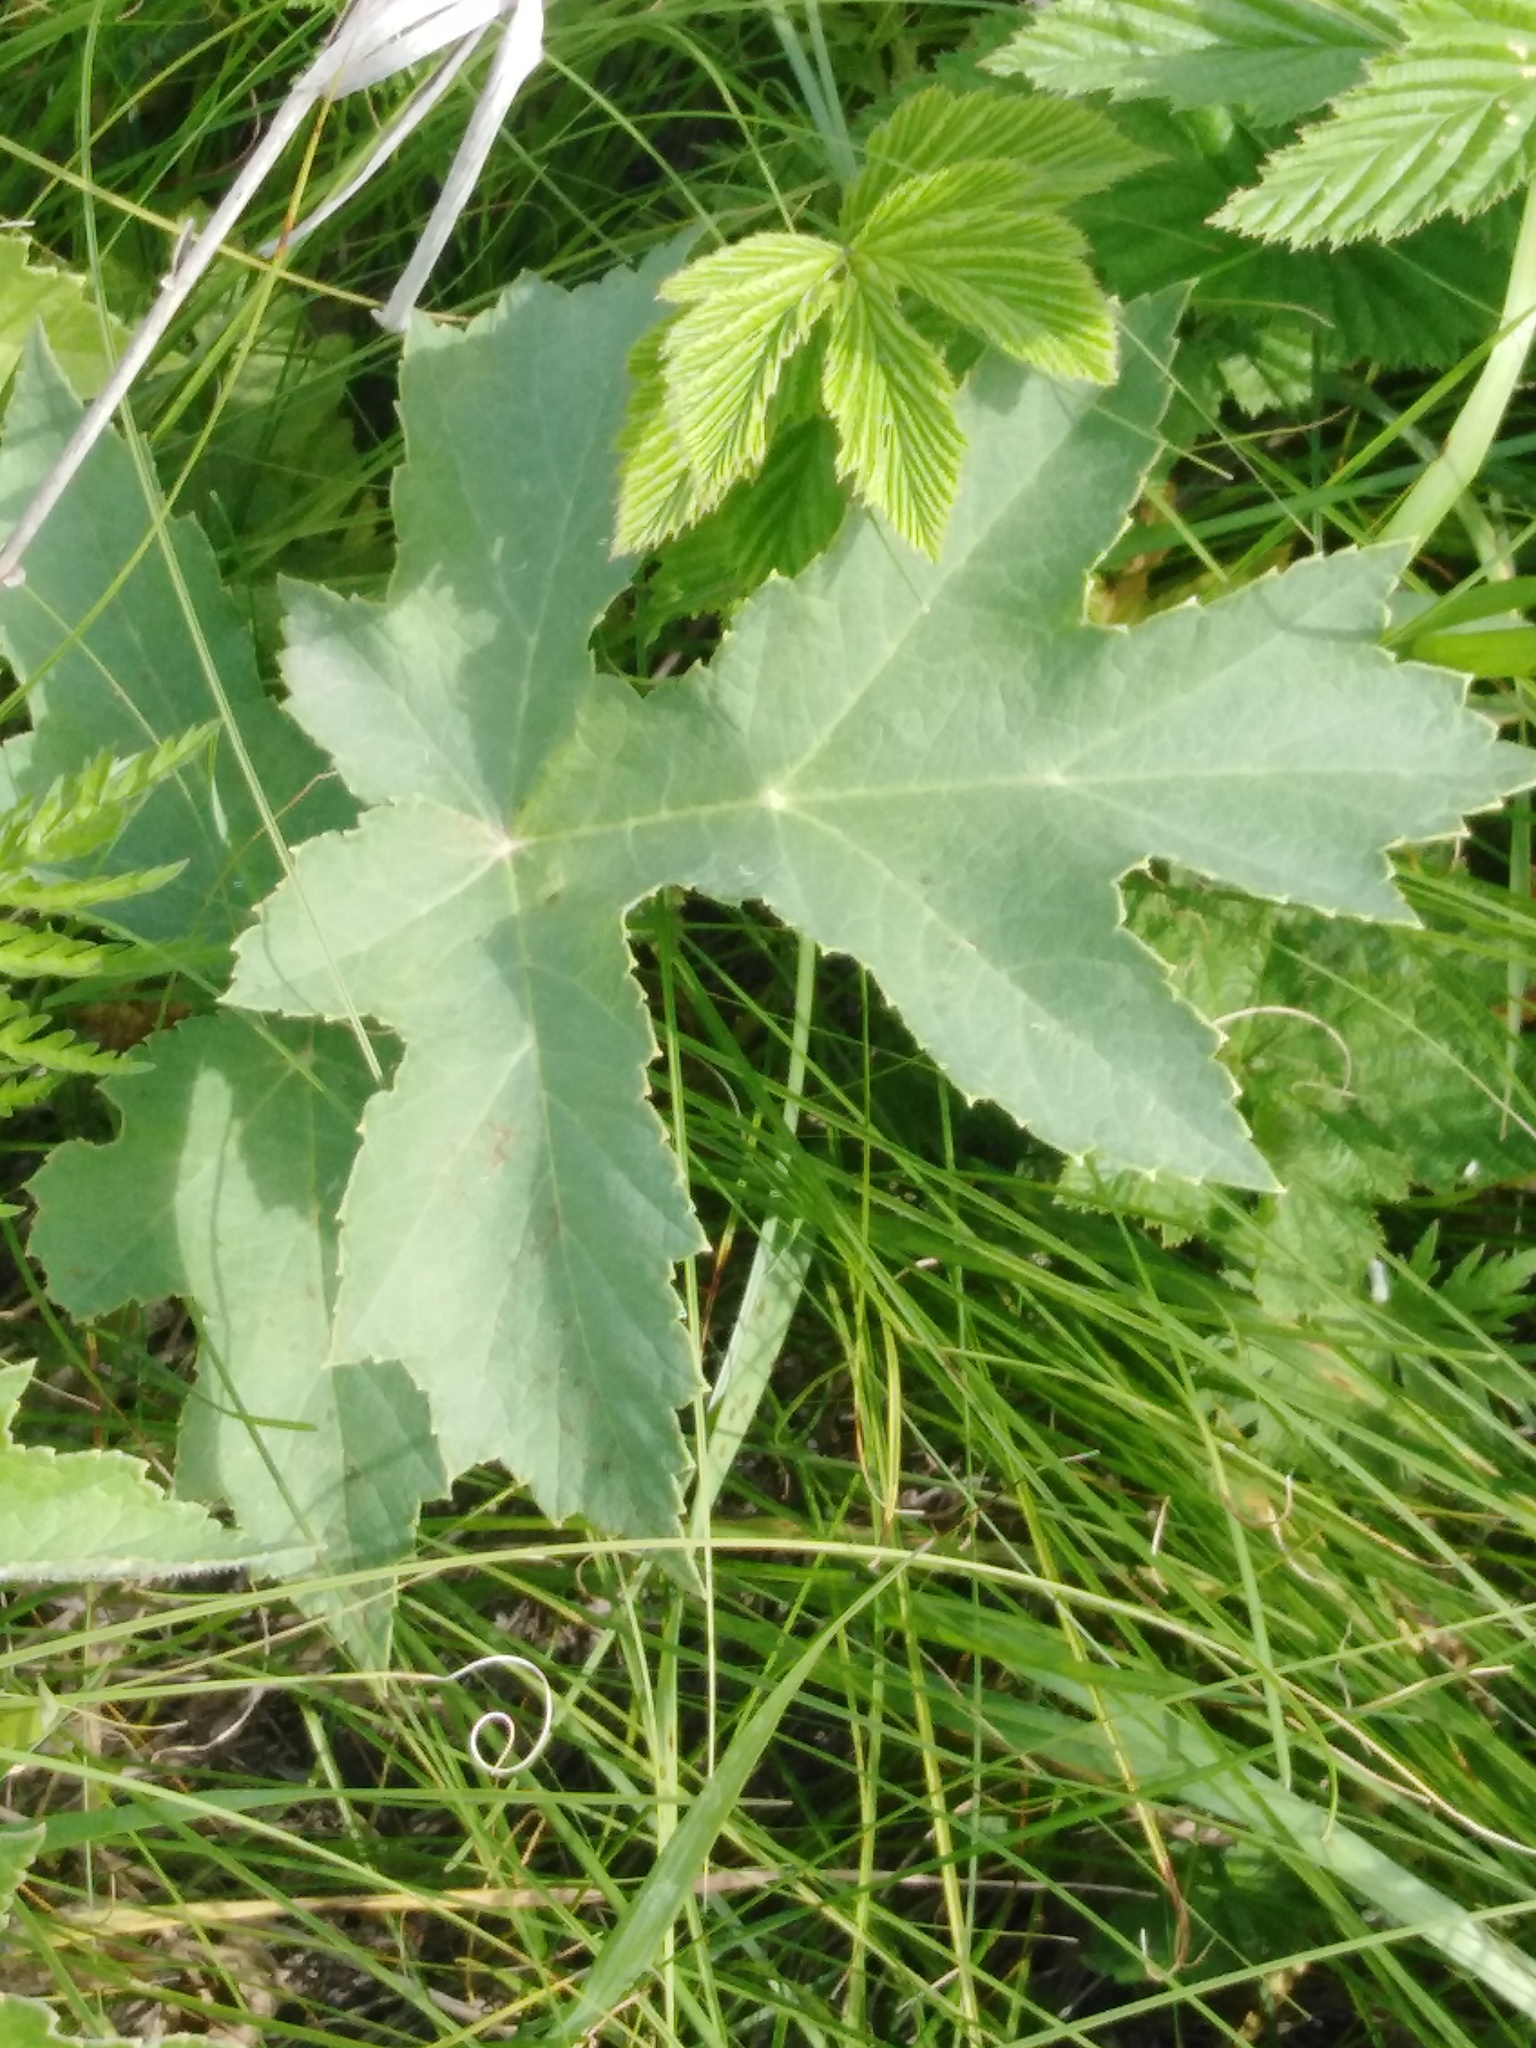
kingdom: Plantae
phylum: Tracheophyta
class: Magnoliopsida
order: Apiales
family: Apiaceae
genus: Heracleum
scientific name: Heracleum sphondylium
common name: Hogweed
